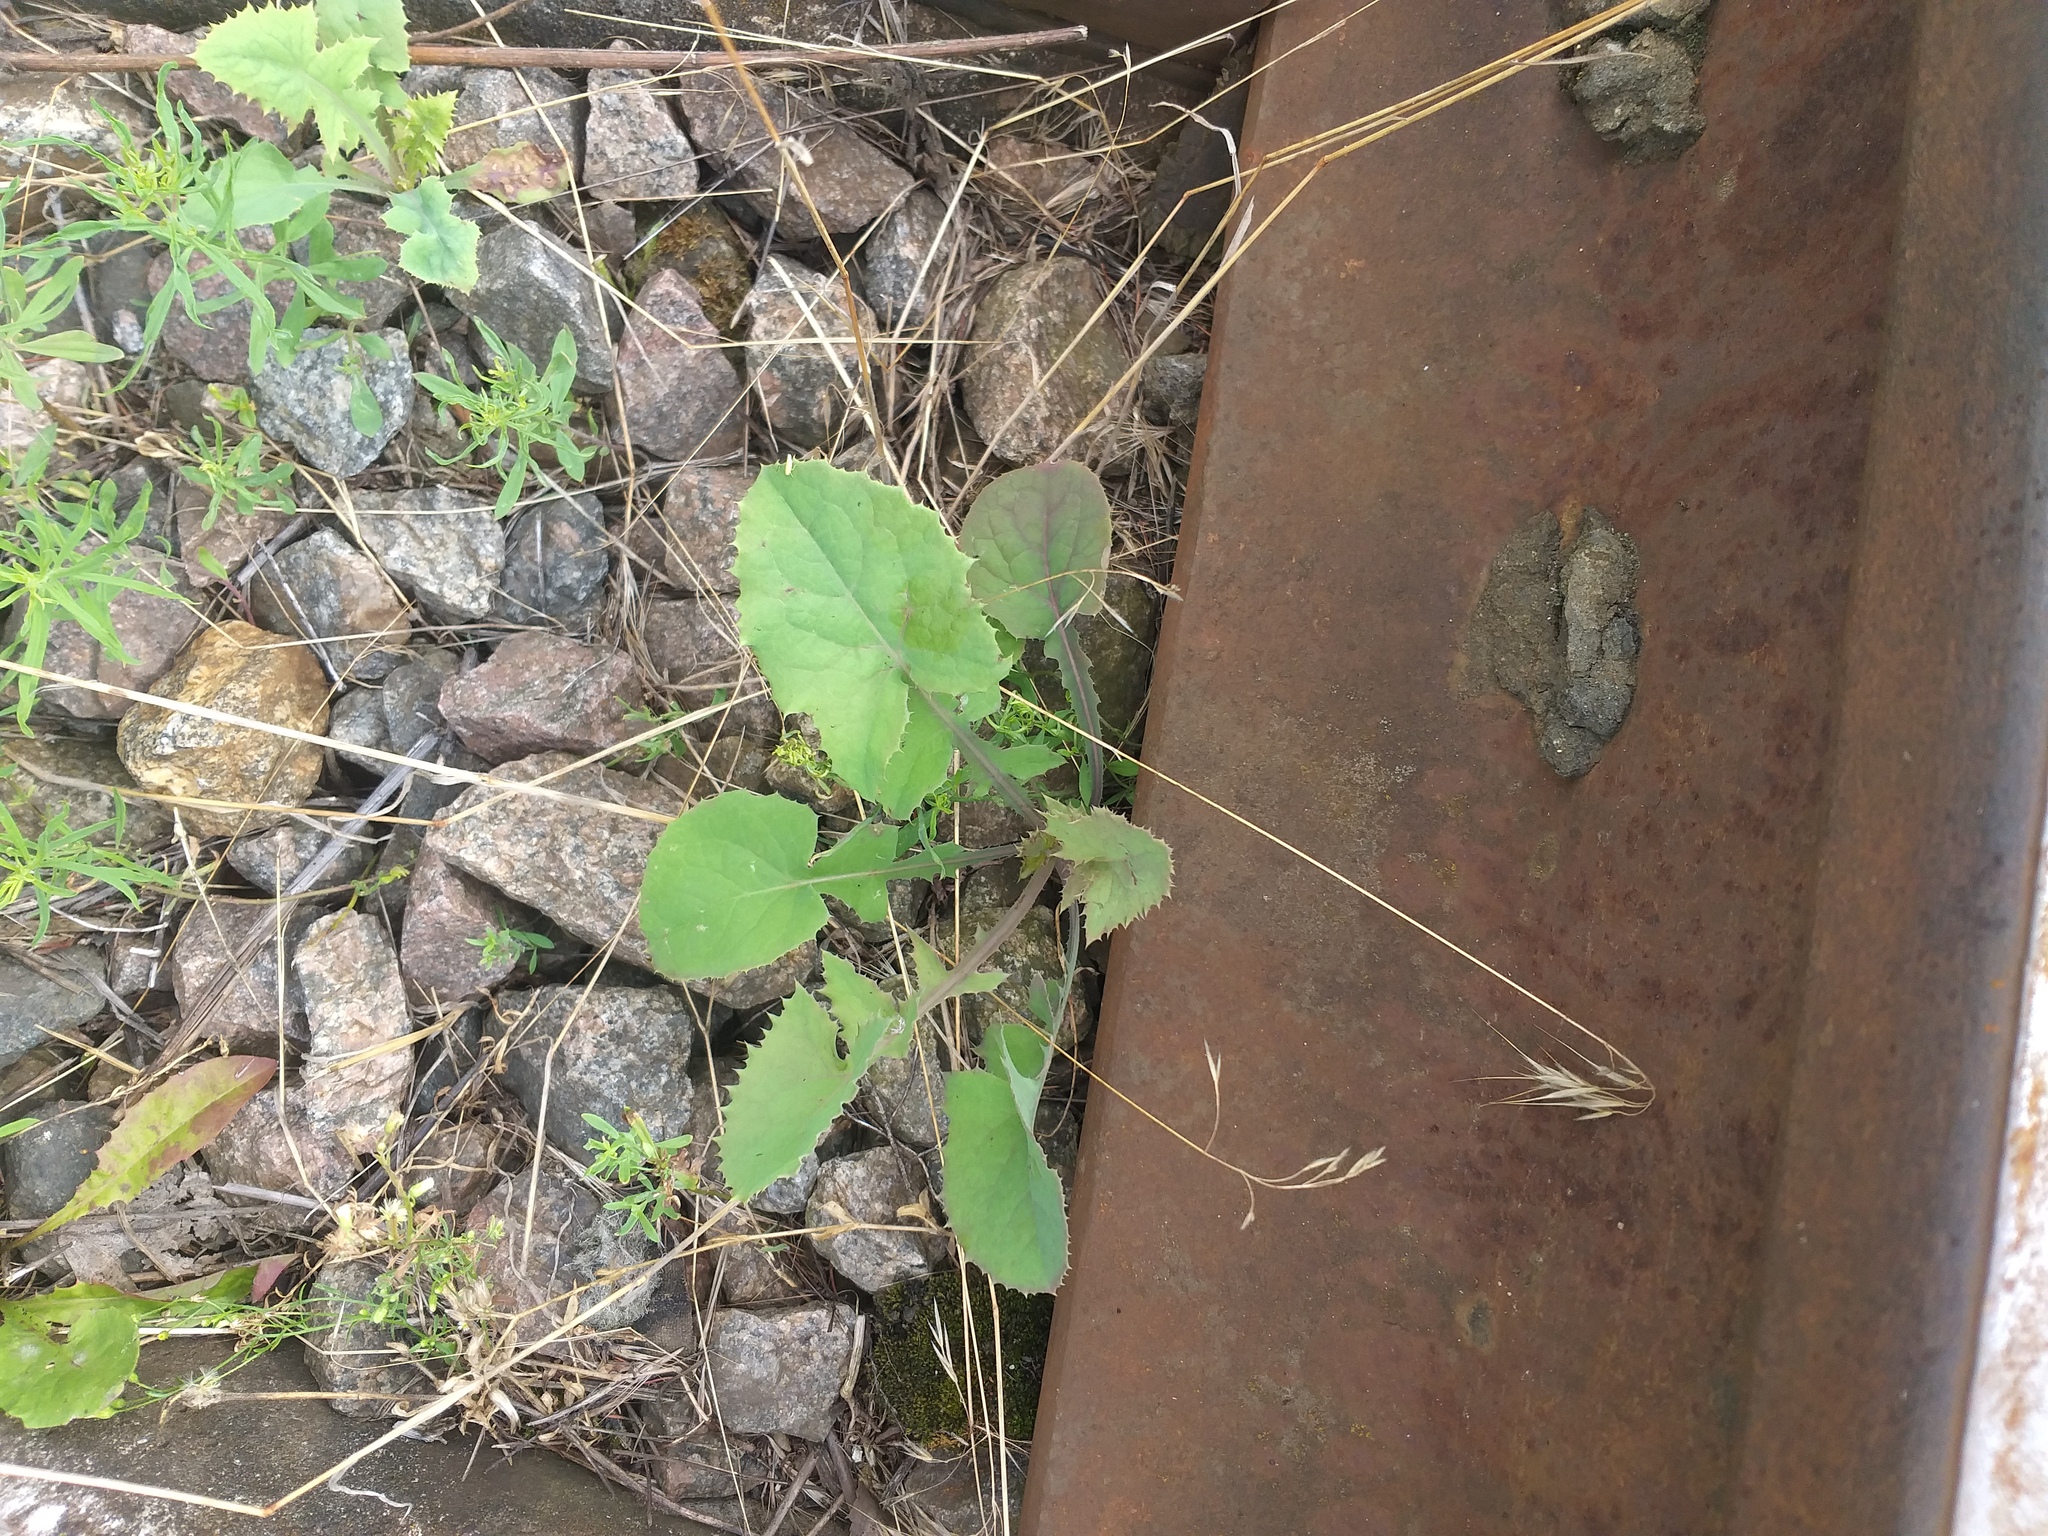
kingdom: Plantae
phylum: Tracheophyta
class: Magnoliopsida
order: Asterales
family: Asteraceae
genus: Sonchus
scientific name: Sonchus oleraceus
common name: Common sowthistle
